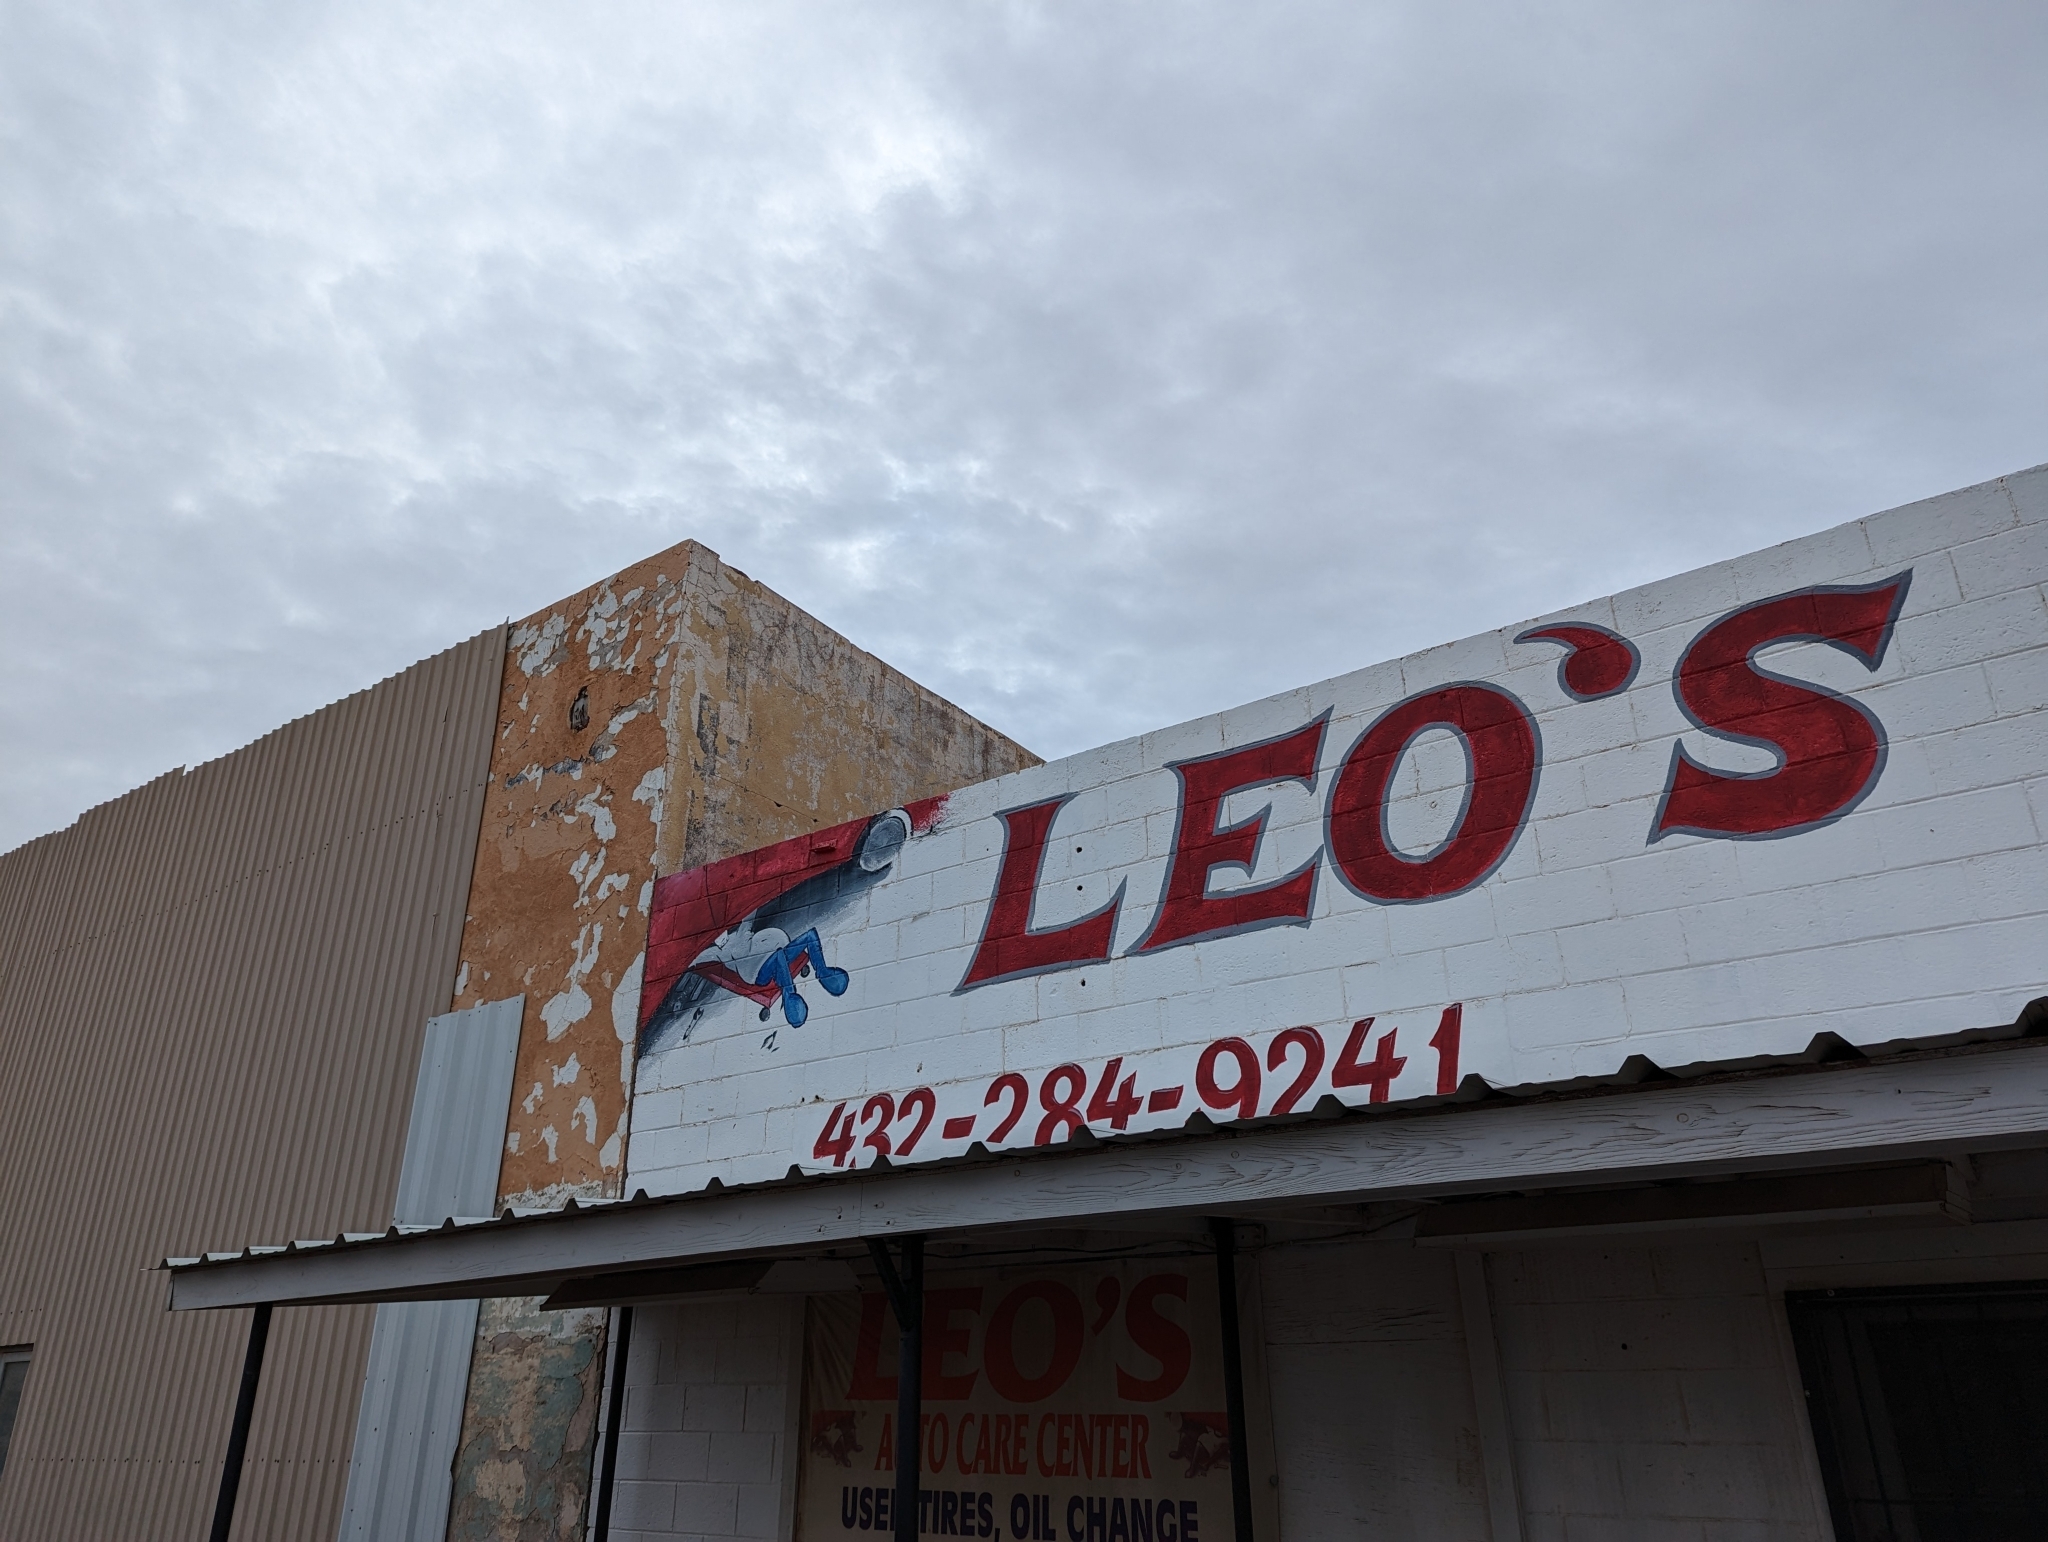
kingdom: Animalia
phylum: Chordata
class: Aves
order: Columbiformes
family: Columbidae
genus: Streptopelia
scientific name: Streptopelia decaocto
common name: Eurasian collared dove
